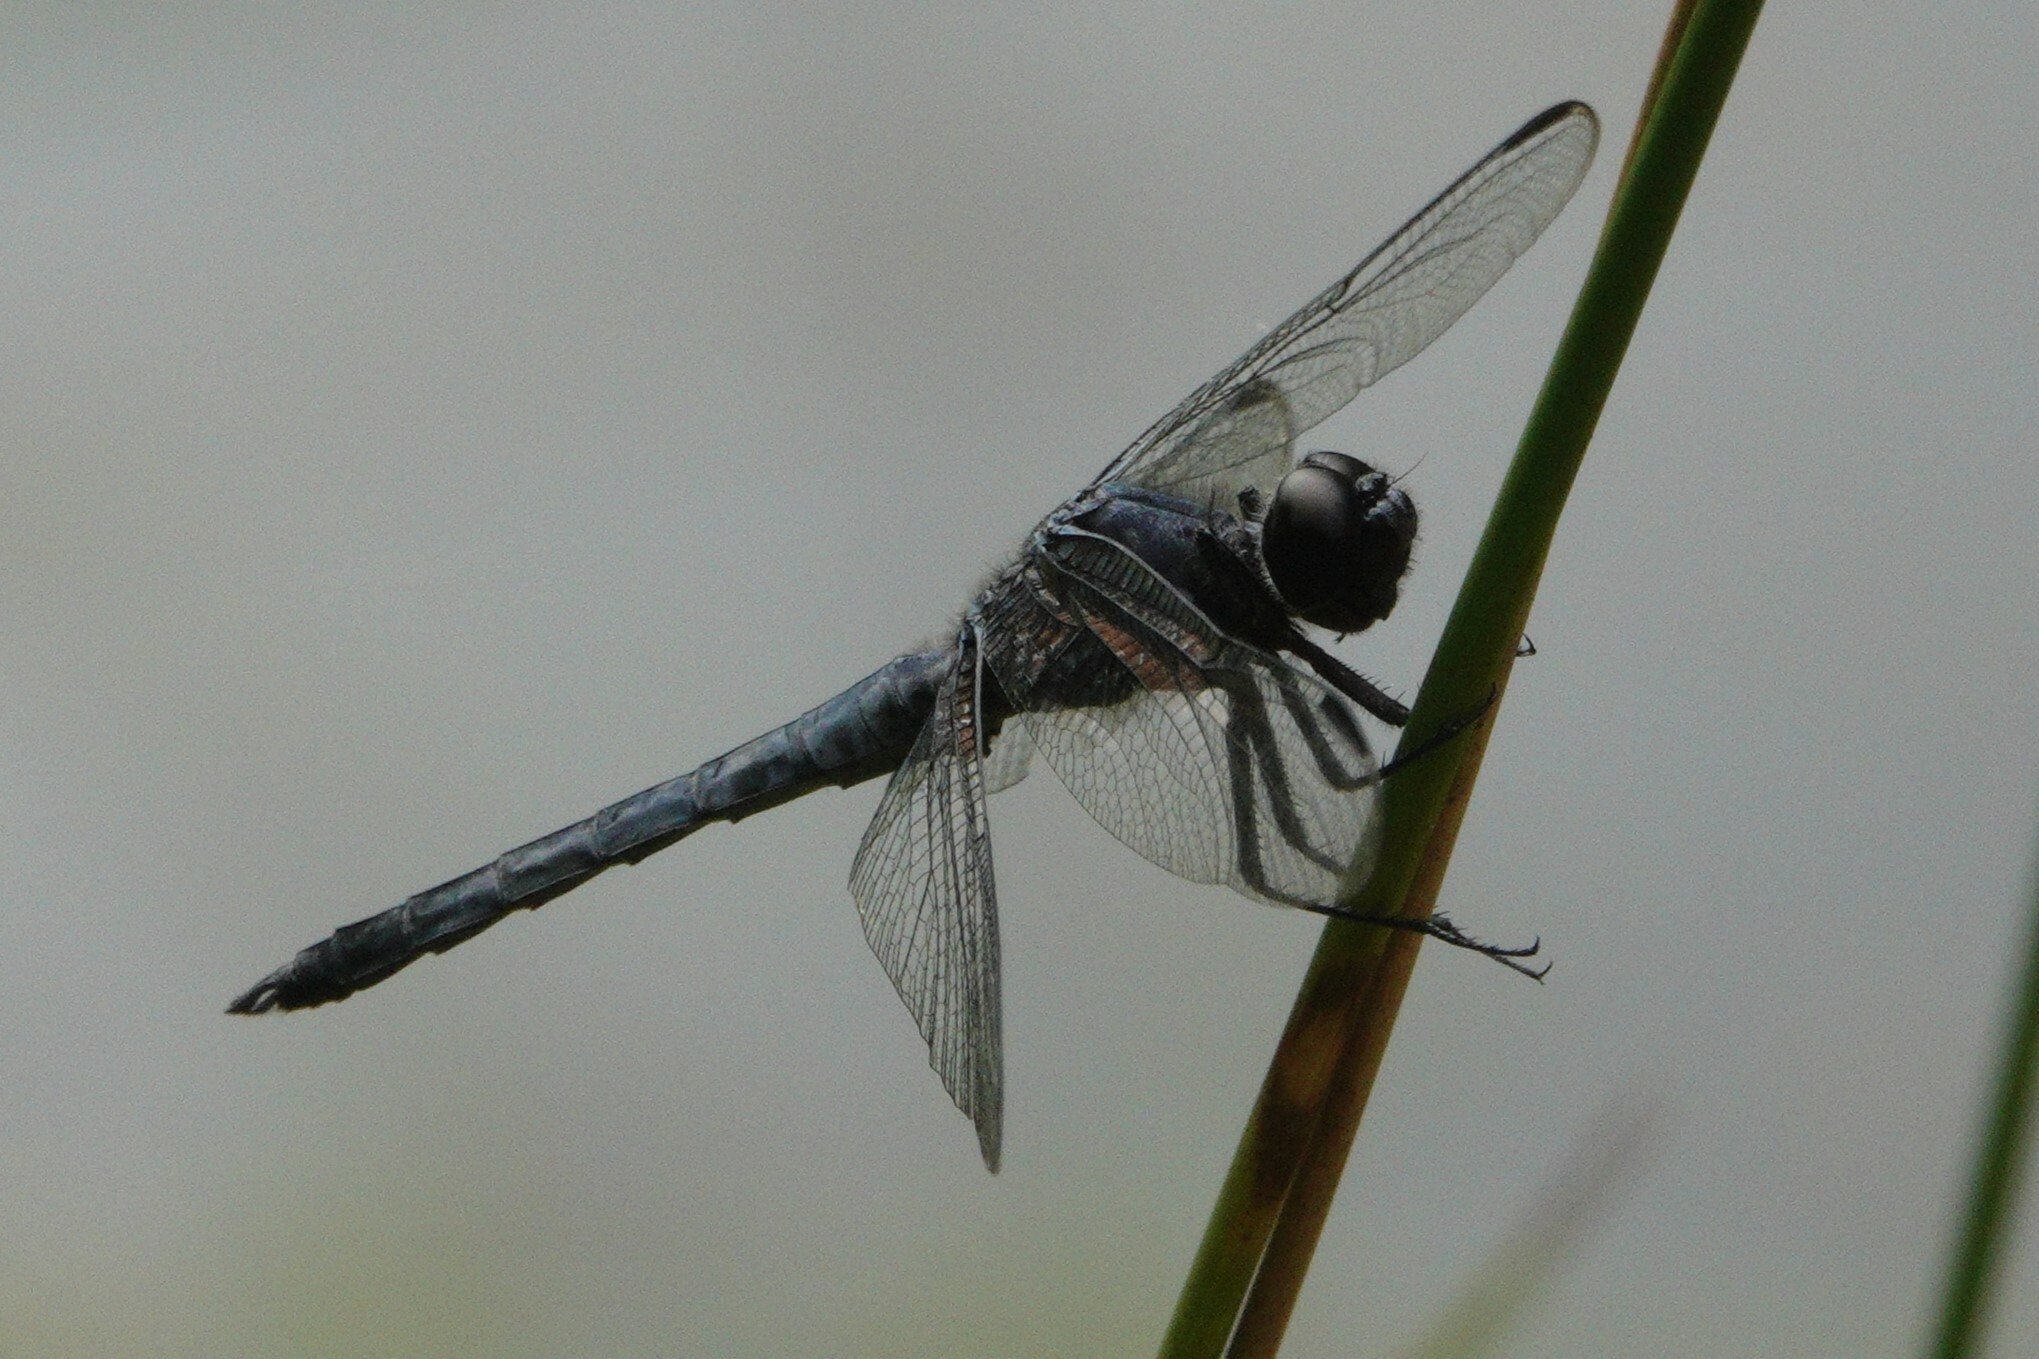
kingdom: Animalia
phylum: Arthropoda
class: Insecta
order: Odonata
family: Libellulidae
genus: Libellula
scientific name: Libellula incesta
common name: Slaty skimmer
